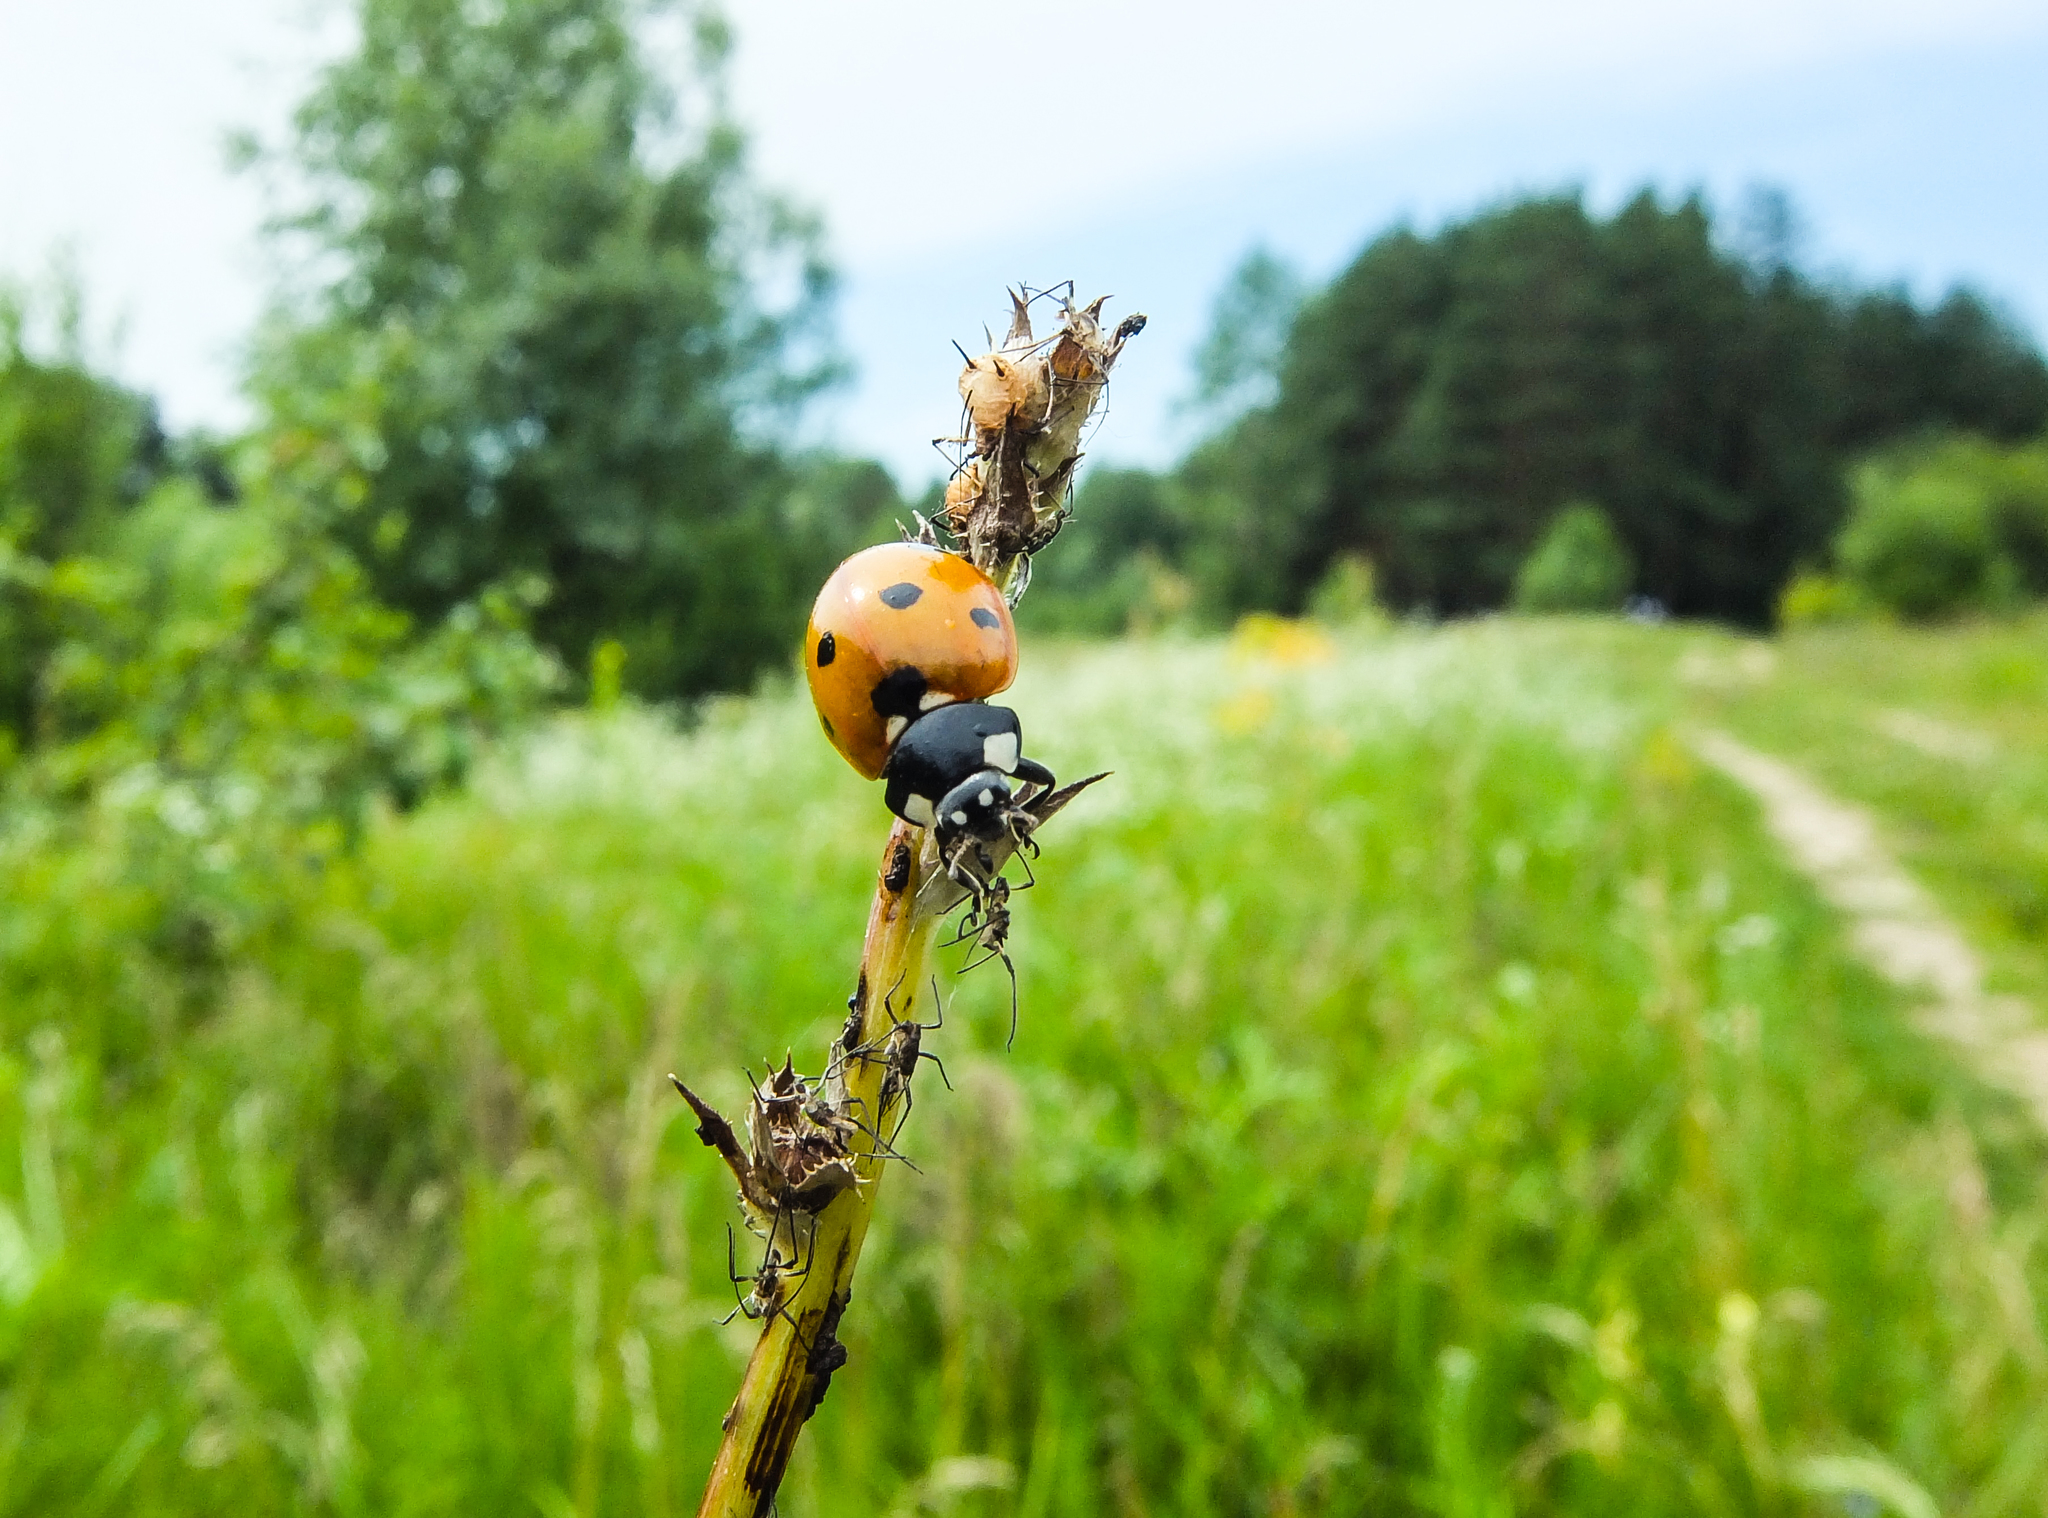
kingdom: Animalia
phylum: Arthropoda
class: Insecta
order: Coleoptera
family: Coccinellidae
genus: Coccinella
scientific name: Coccinella septempunctata
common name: Sevenspotted lady beetle
